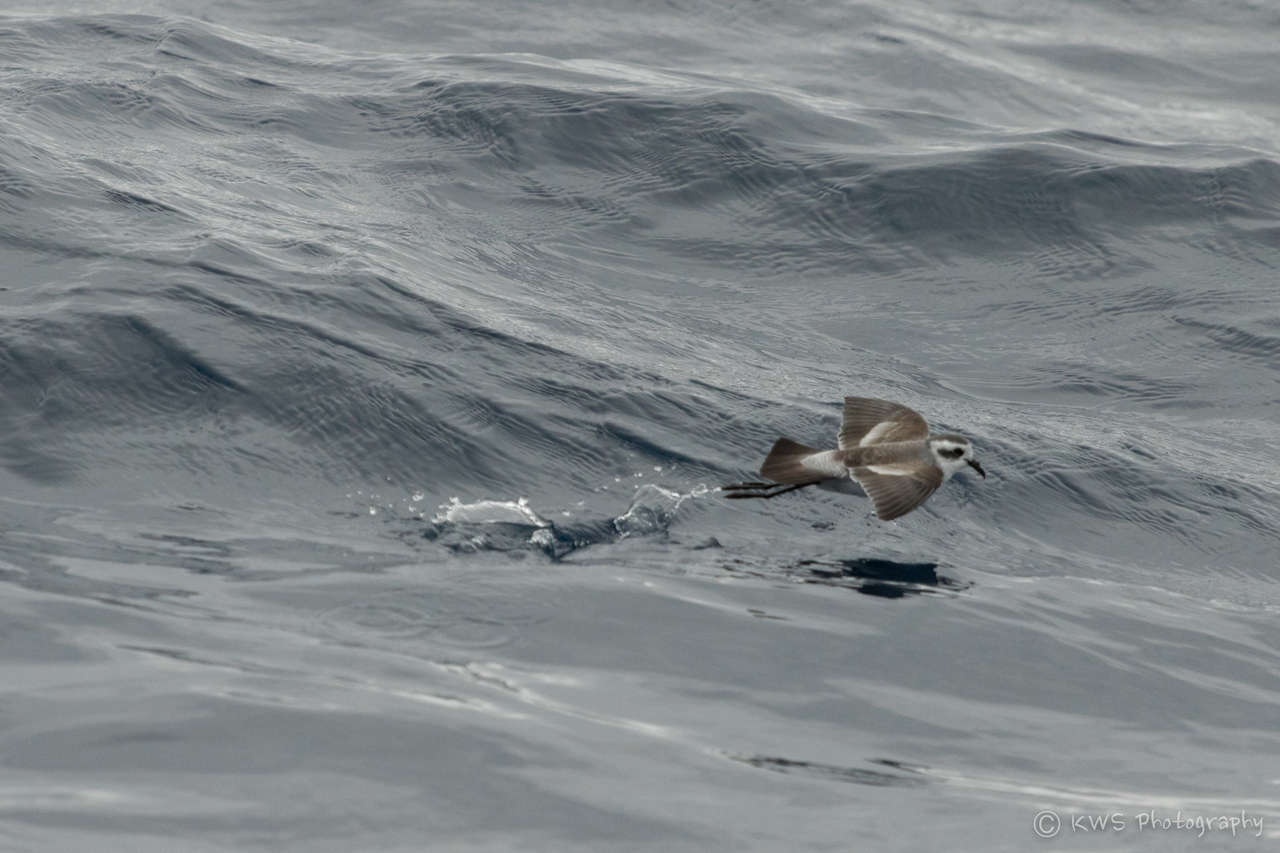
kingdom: Animalia
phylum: Chordata
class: Aves
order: Procellariiformes
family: Hydrobatidae
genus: Pelagodroma
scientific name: Pelagodroma marina
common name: White-faced storm-petrel
